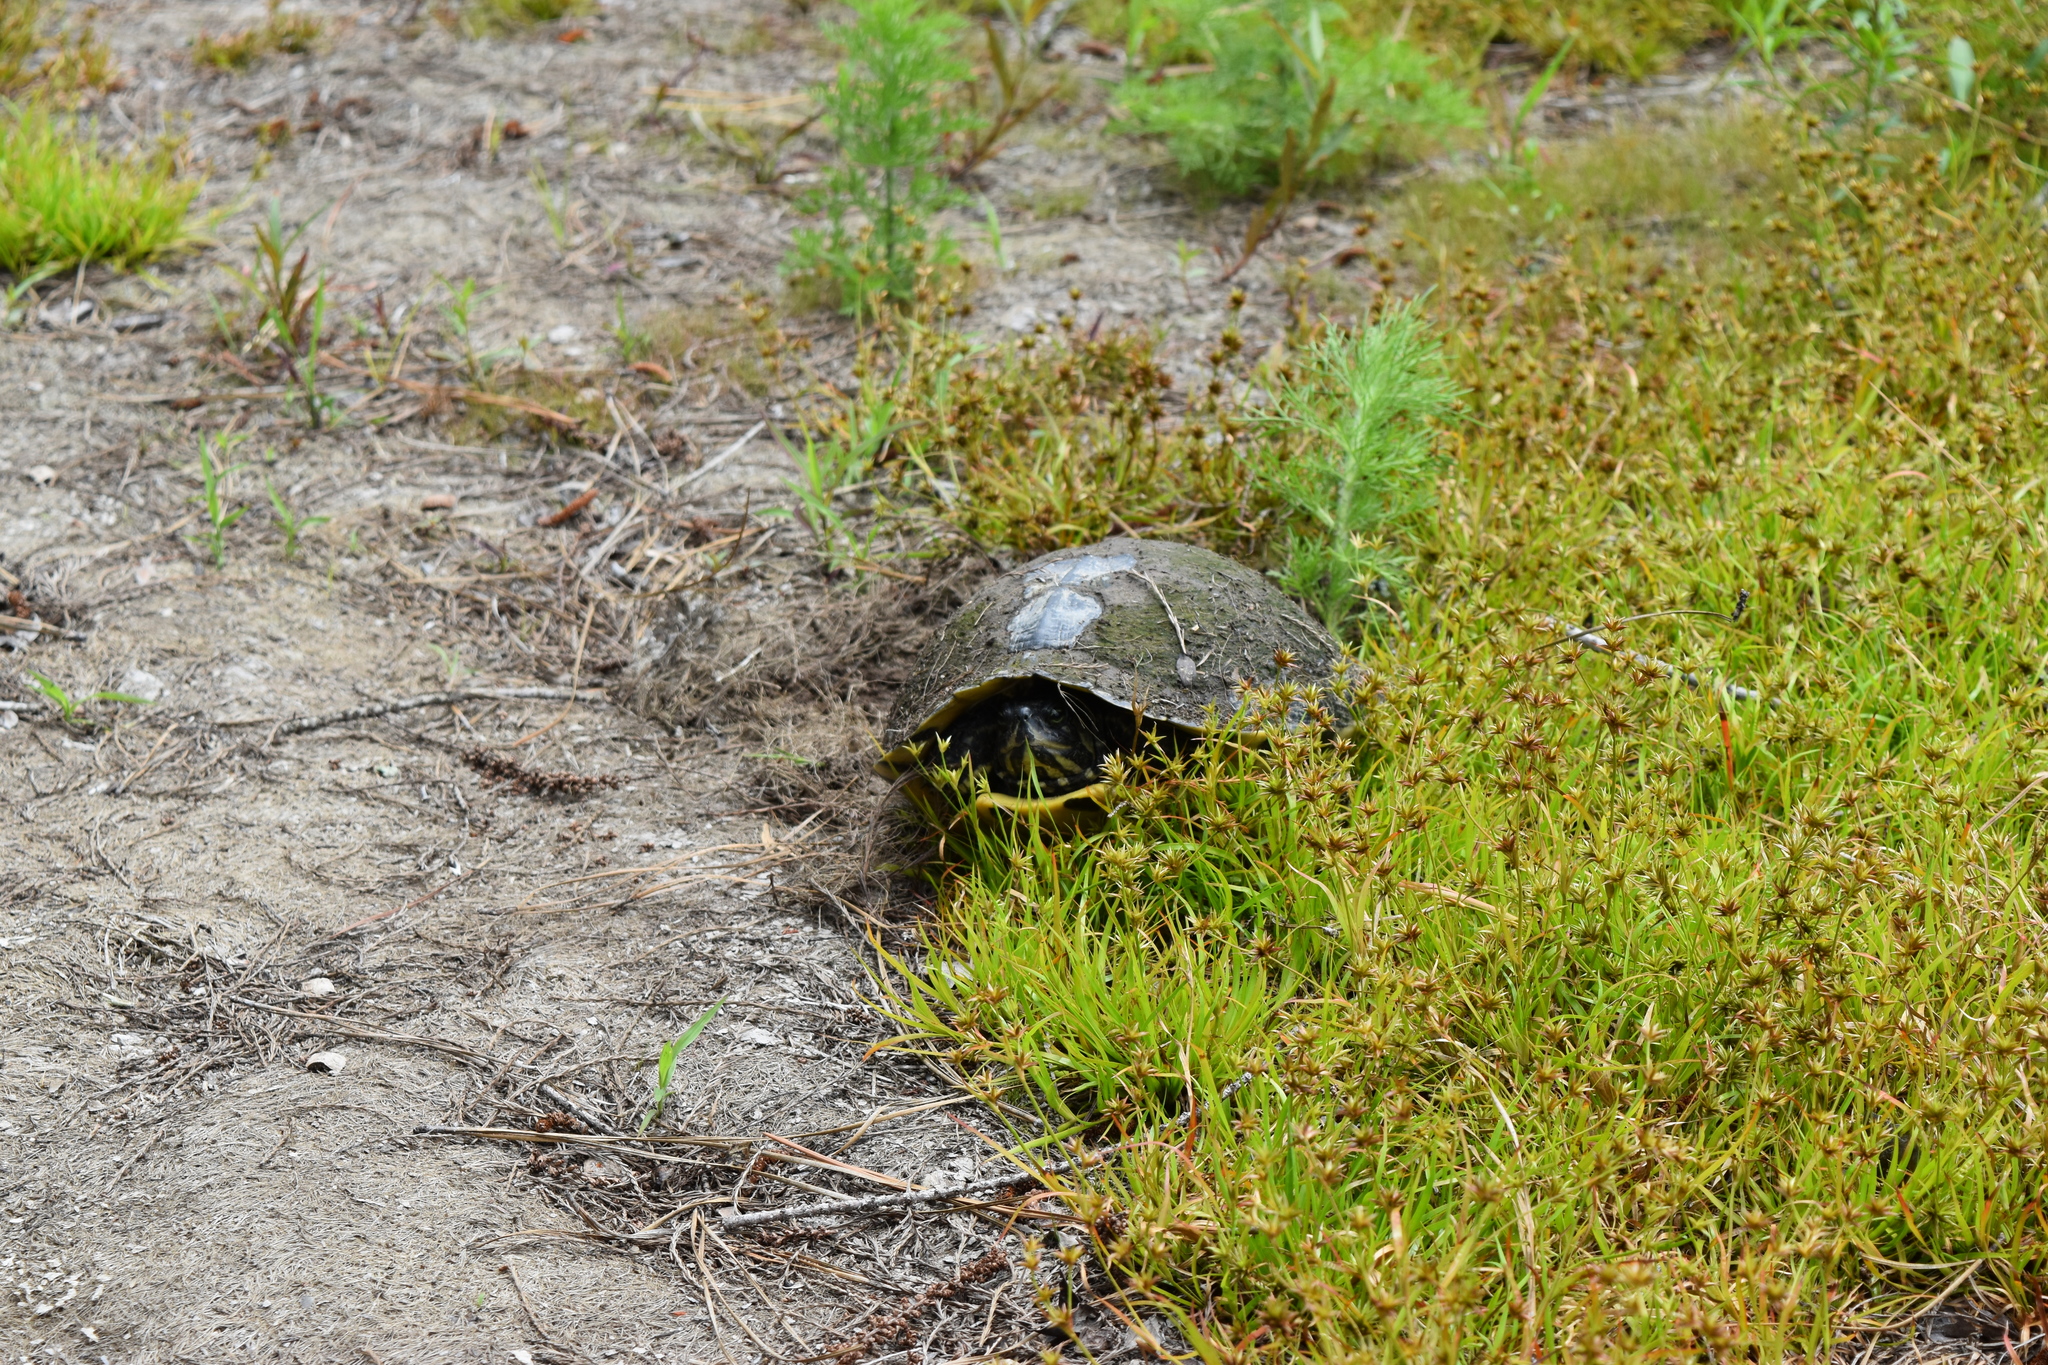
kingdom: Animalia
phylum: Chordata
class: Testudines
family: Emydidae
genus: Trachemys
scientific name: Trachemys scripta
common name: Slider
